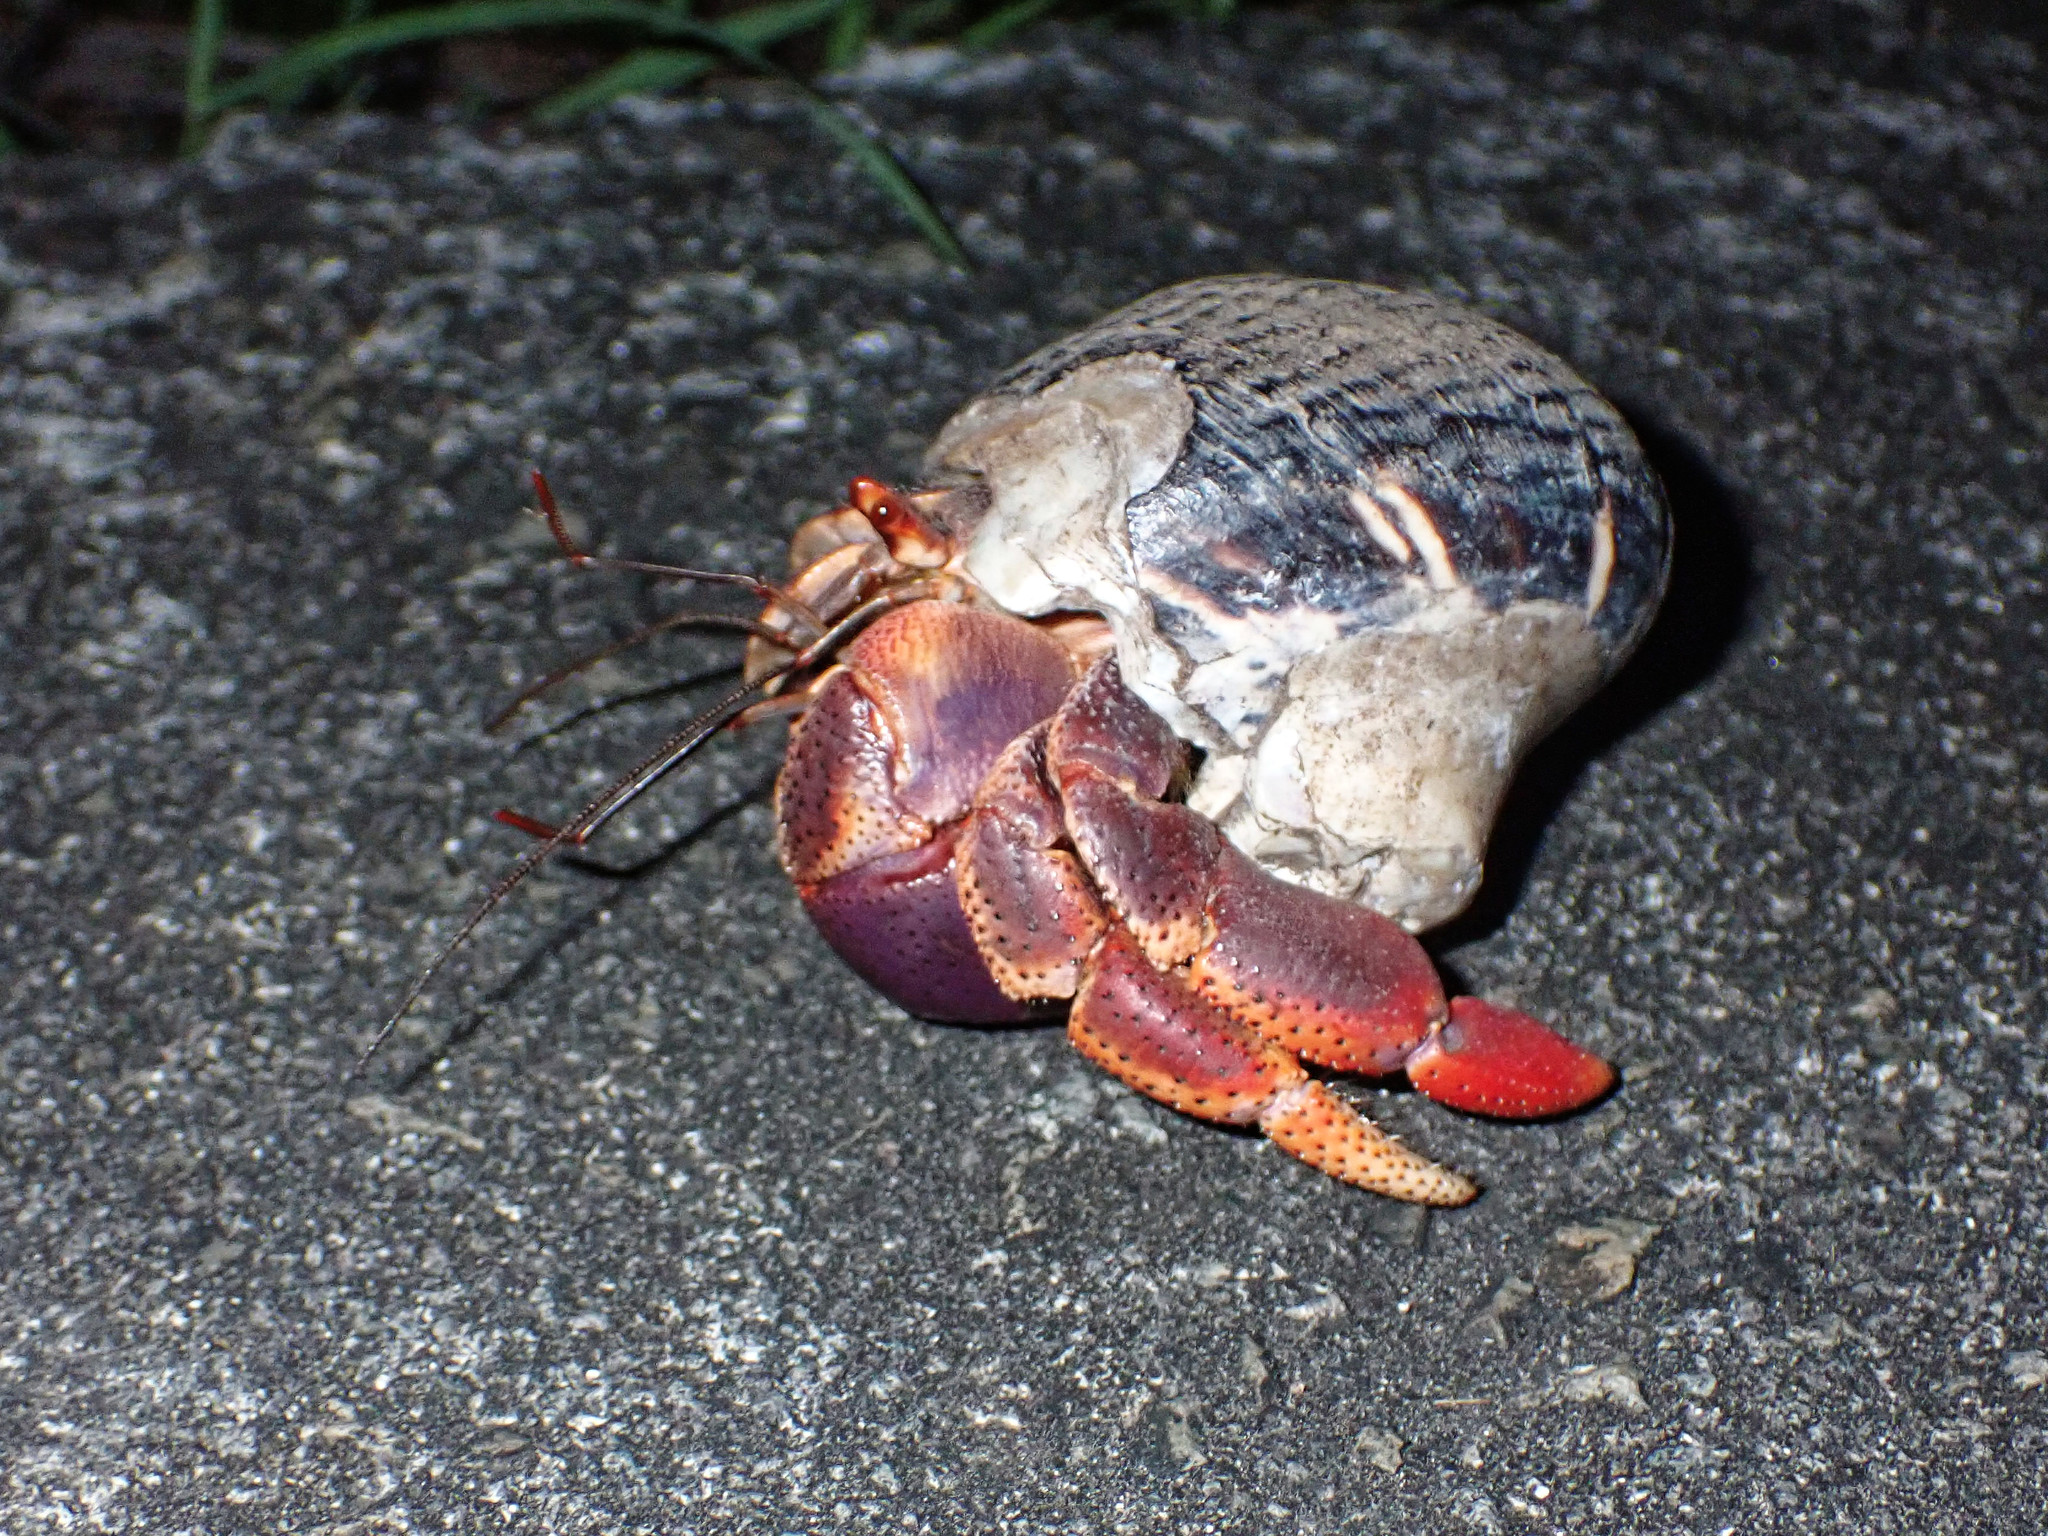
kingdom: Animalia
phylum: Arthropoda
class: Malacostraca
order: Decapoda
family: Coenobitidae
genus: Coenobita
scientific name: Coenobita clypeatus
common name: Caribbean hermit crab
